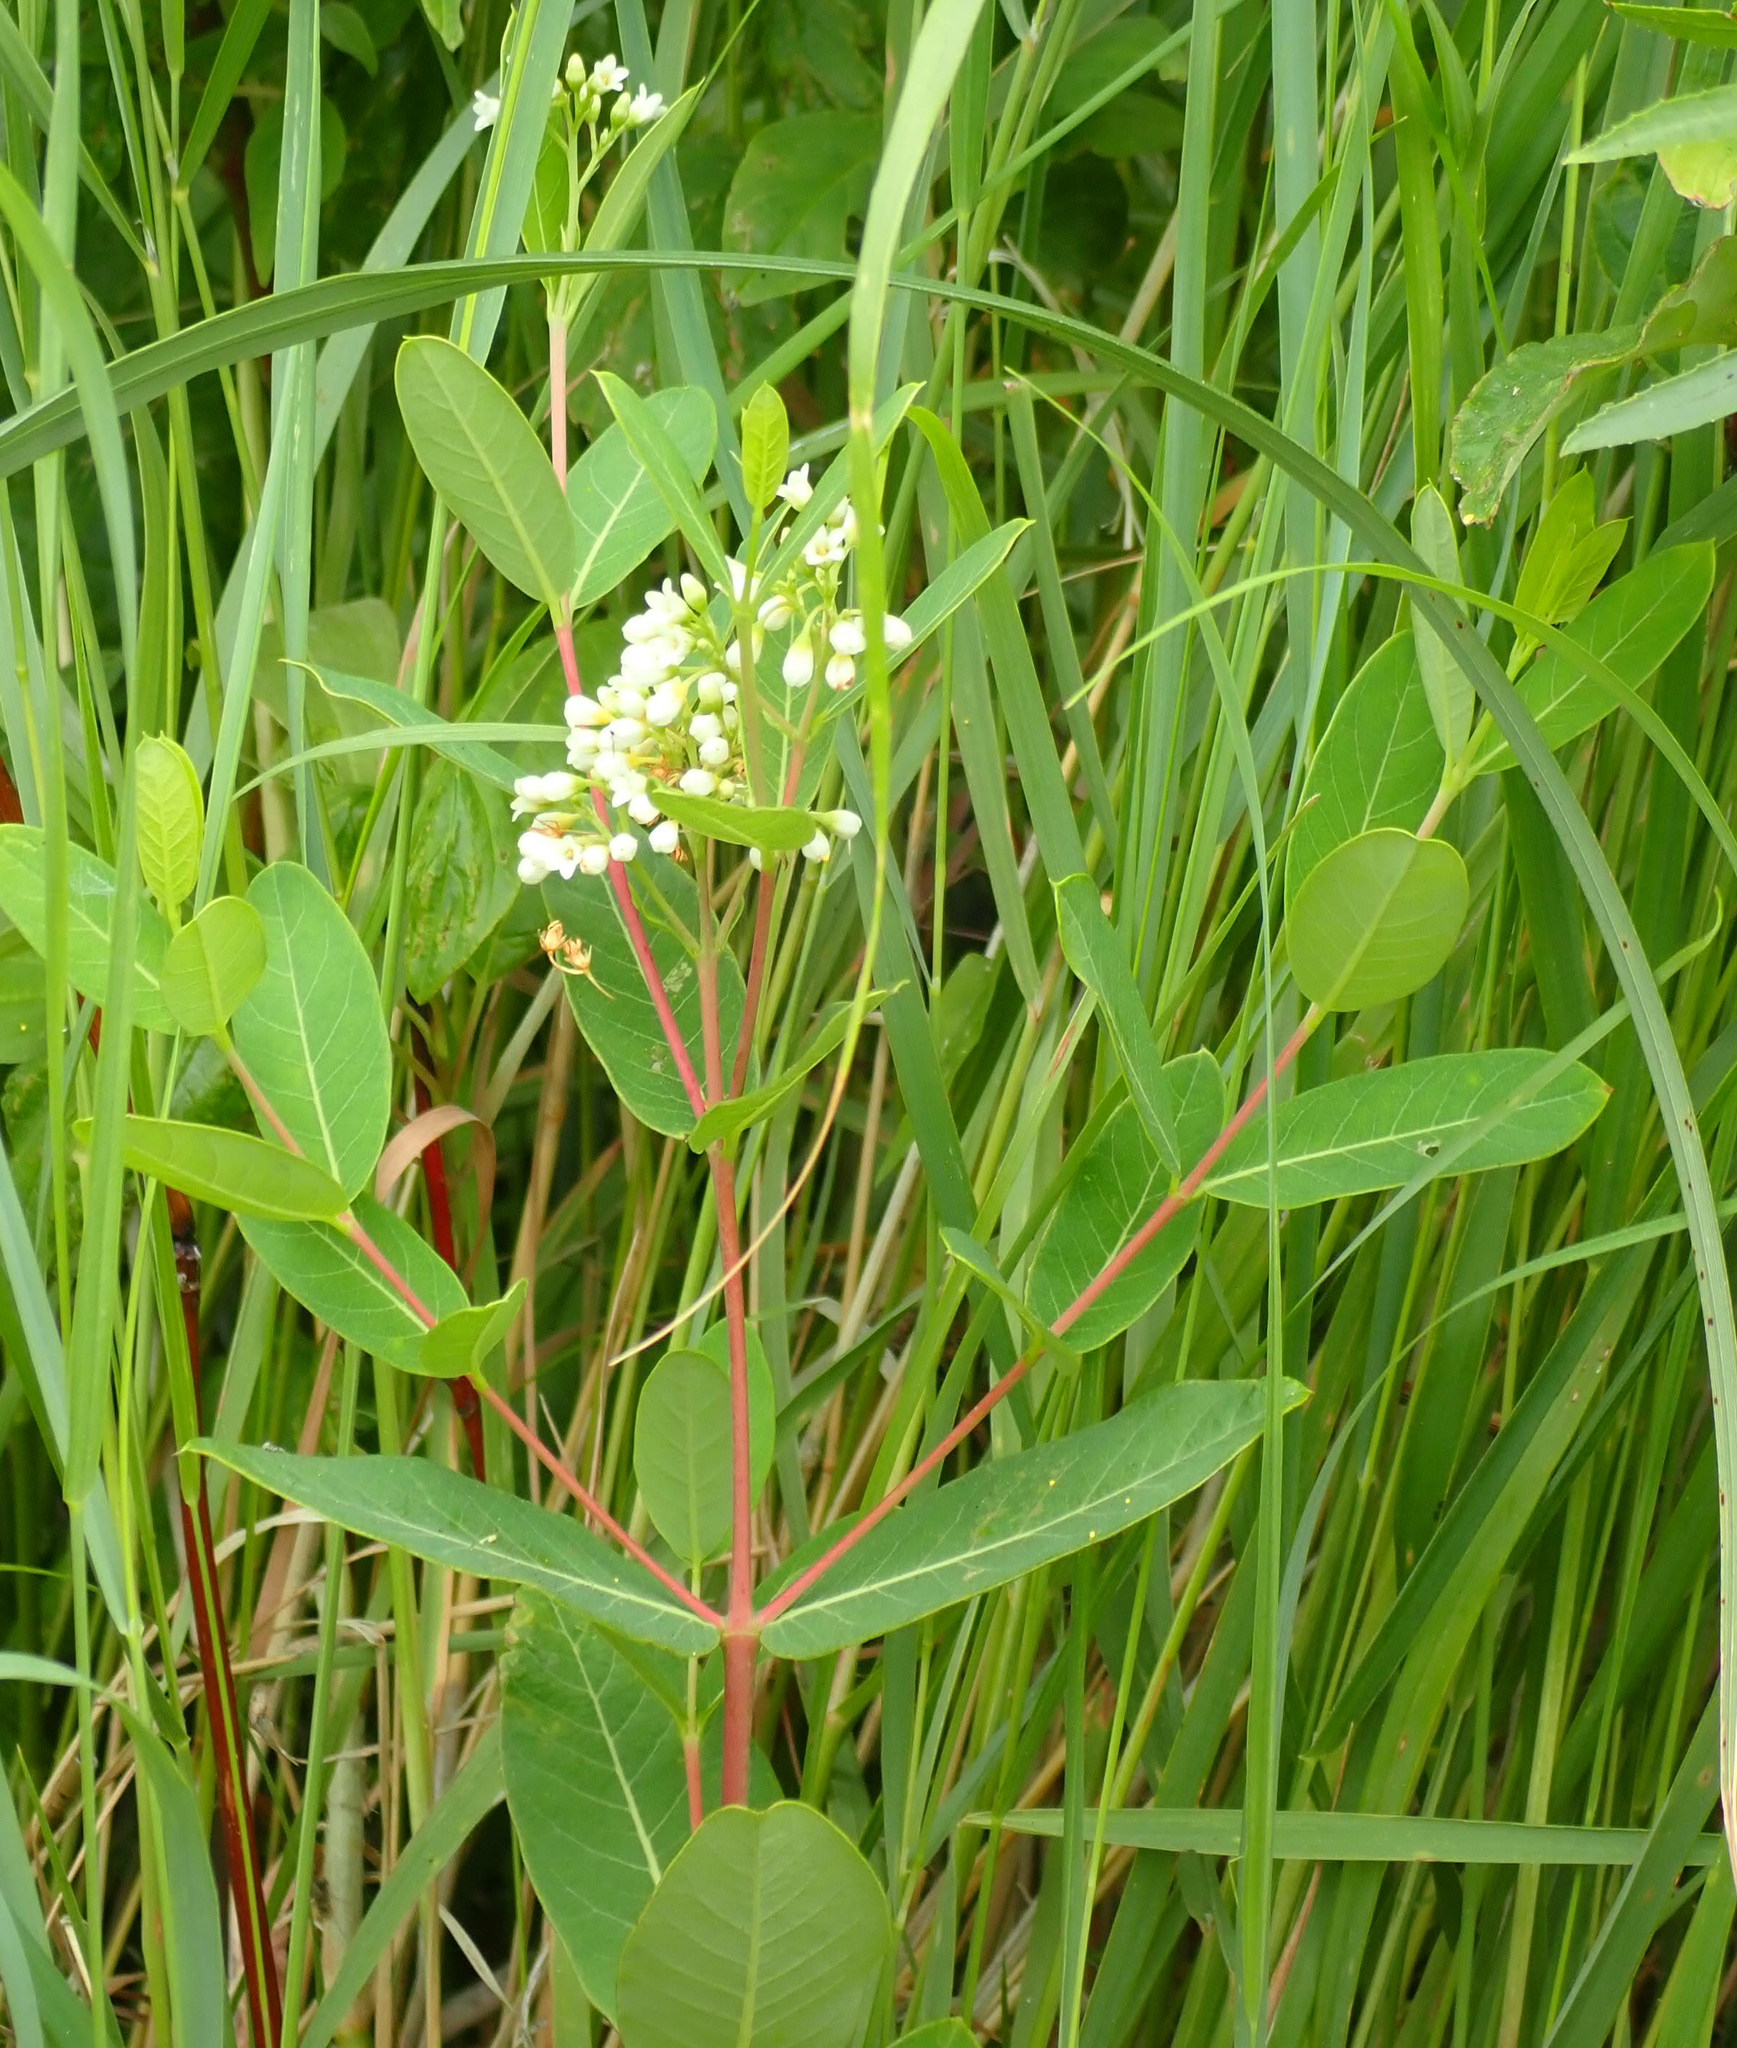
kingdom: Plantae
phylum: Tracheophyta
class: Magnoliopsida
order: Gentianales
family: Apocynaceae
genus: Apocynum
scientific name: Apocynum cannabinum
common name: Hemp dogbane
